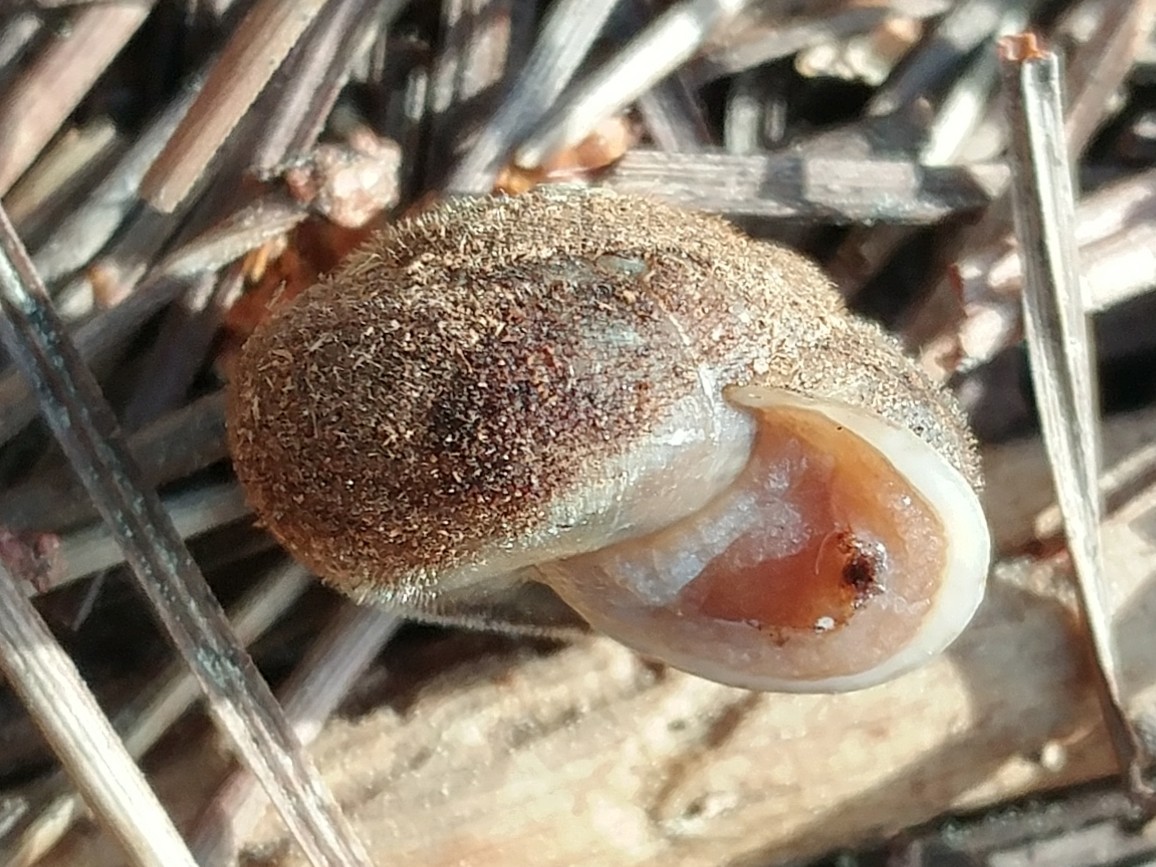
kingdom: Animalia
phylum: Mollusca
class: Gastropoda
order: Stylommatophora
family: Polygyridae
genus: Vespericola
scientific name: Vespericola pinicola
